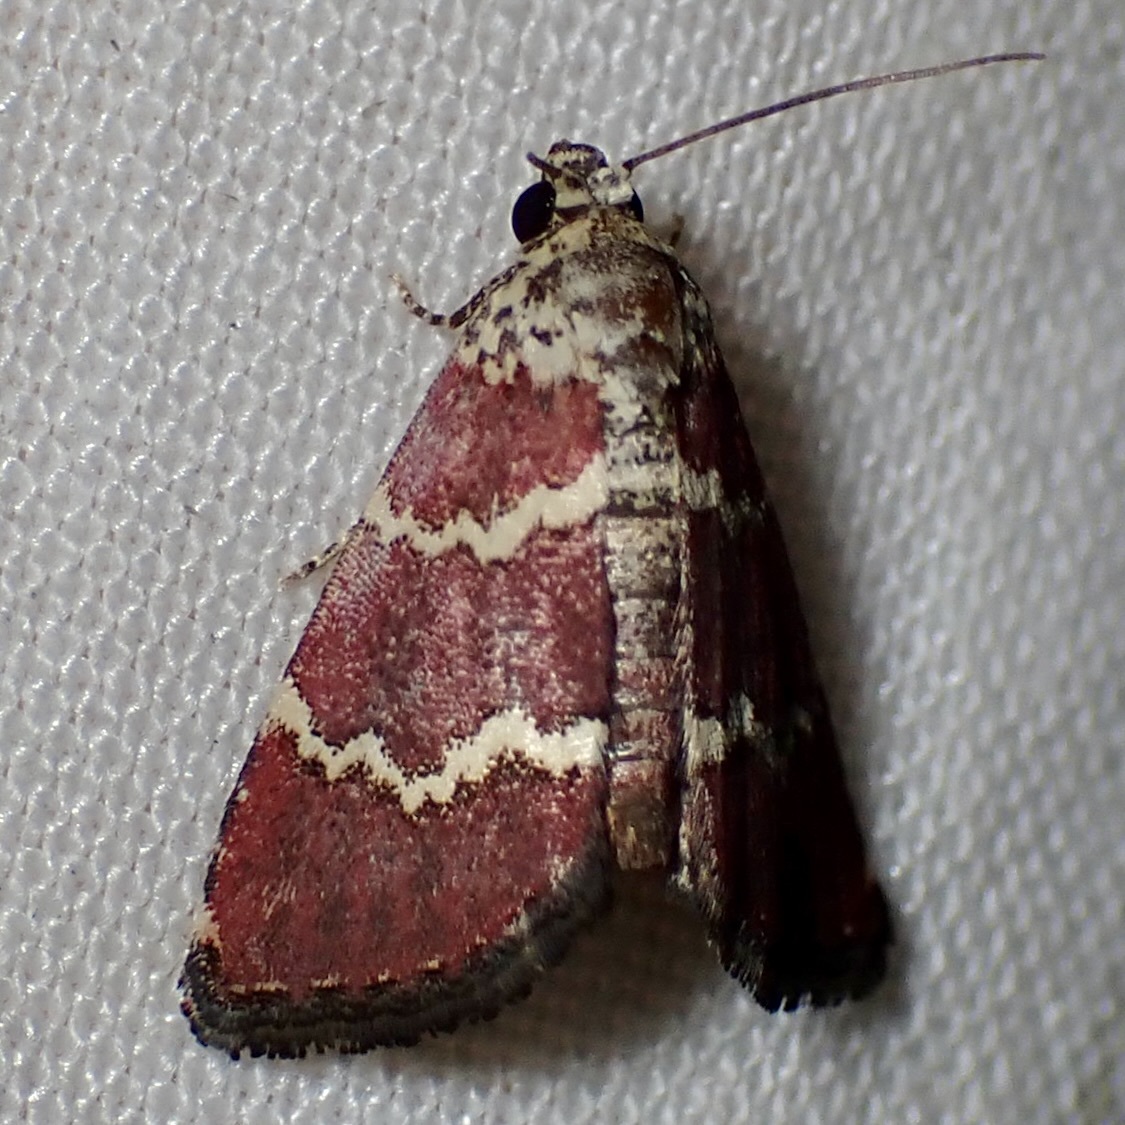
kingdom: Animalia
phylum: Arthropoda
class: Insecta
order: Lepidoptera
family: Noctuidae
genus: Phoenicophanta
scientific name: Phoenicophanta modestula
